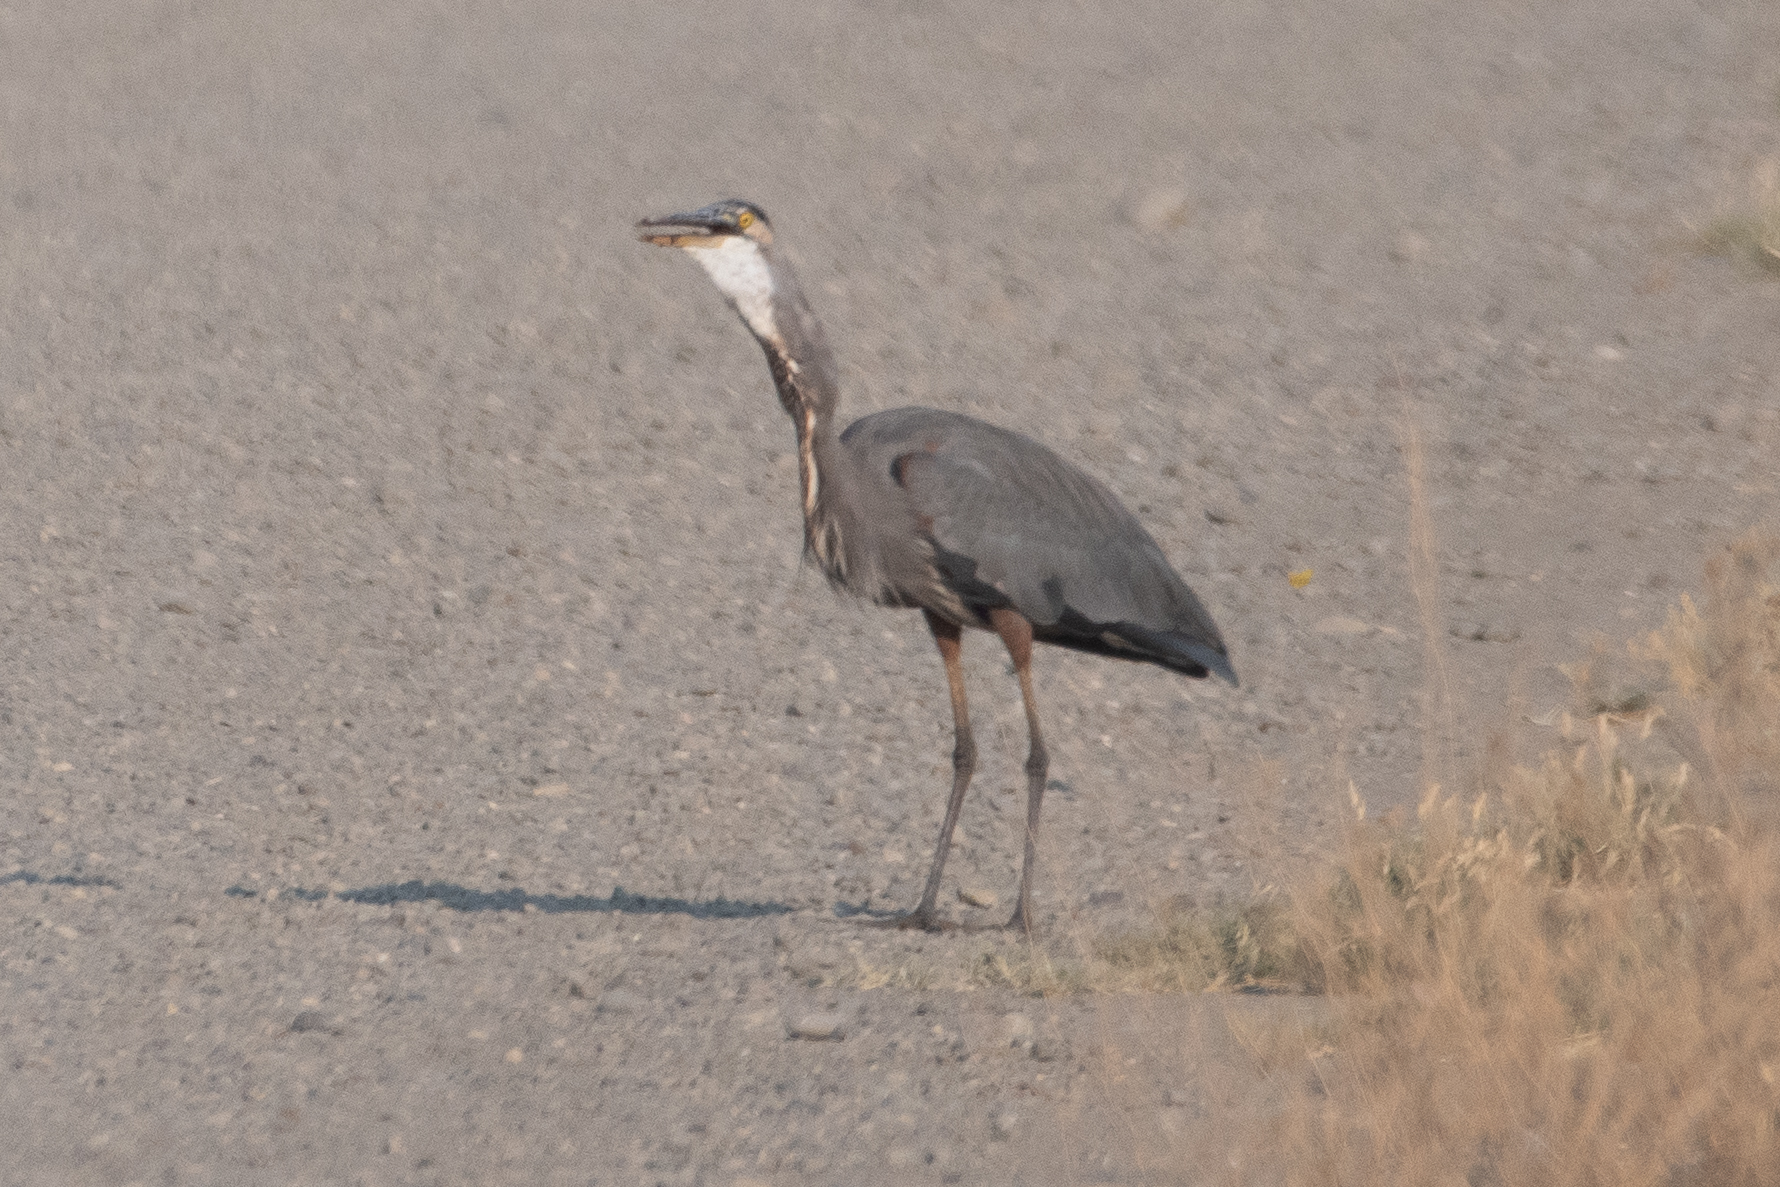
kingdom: Animalia
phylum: Chordata
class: Aves
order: Pelecaniformes
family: Ardeidae
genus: Ardea
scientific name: Ardea herodias
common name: Great blue heron
